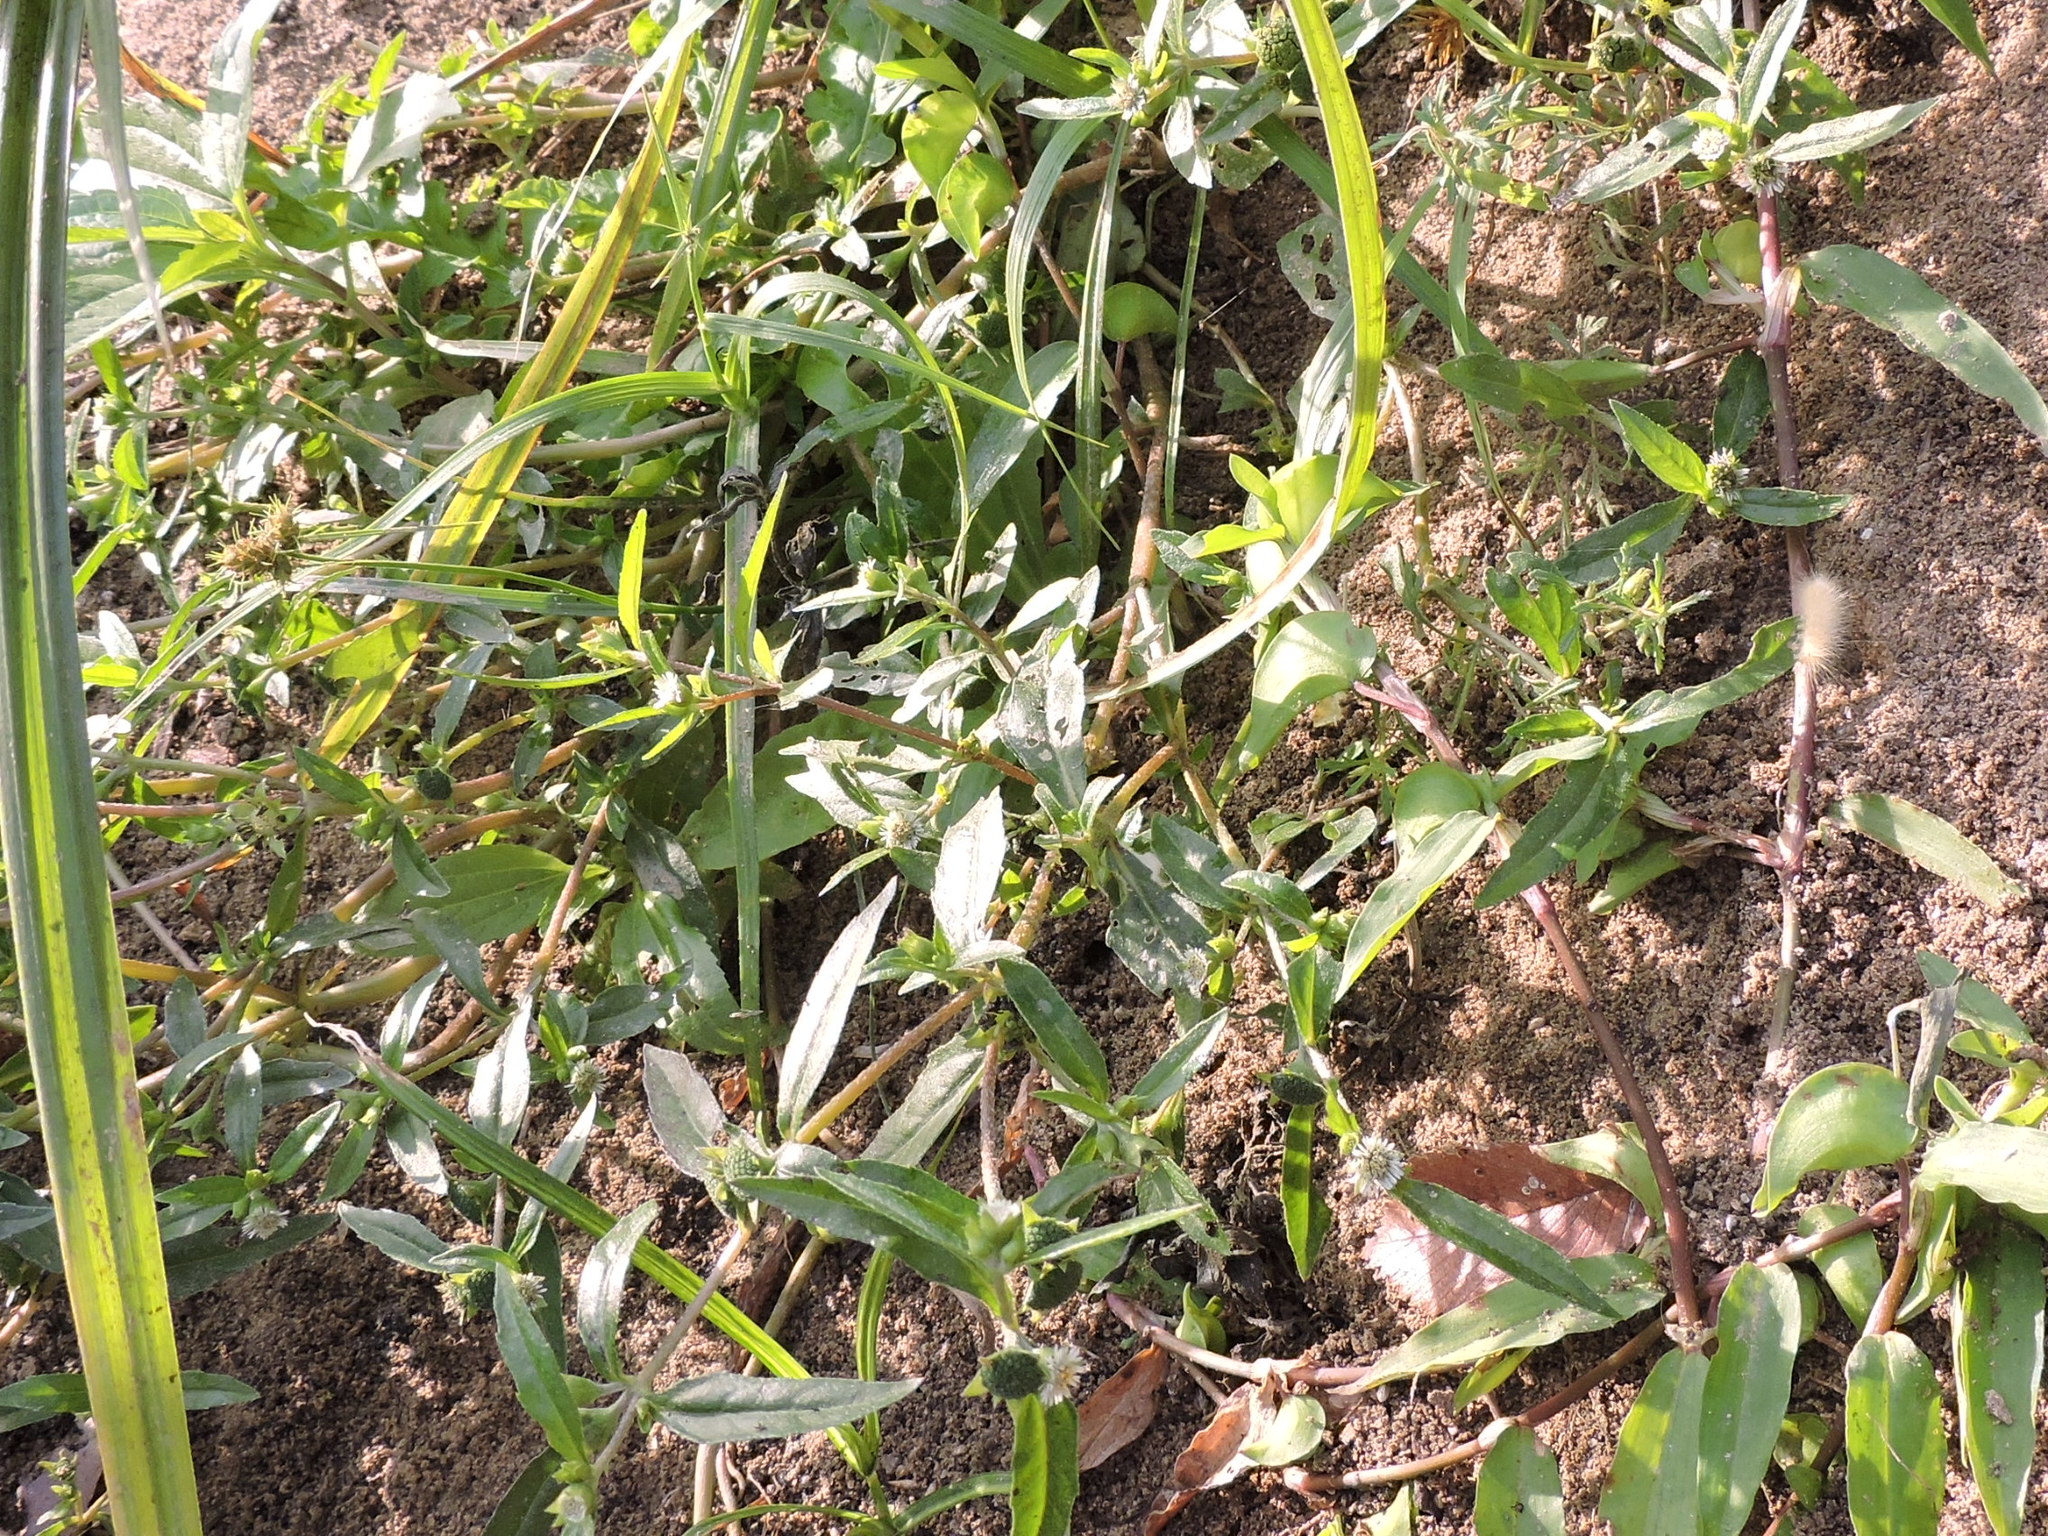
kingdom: Plantae
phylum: Tracheophyta
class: Magnoliopsida
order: Asterales
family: Asteraceae
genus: Eclipta
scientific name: Eclipta prostrata
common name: False daisy
